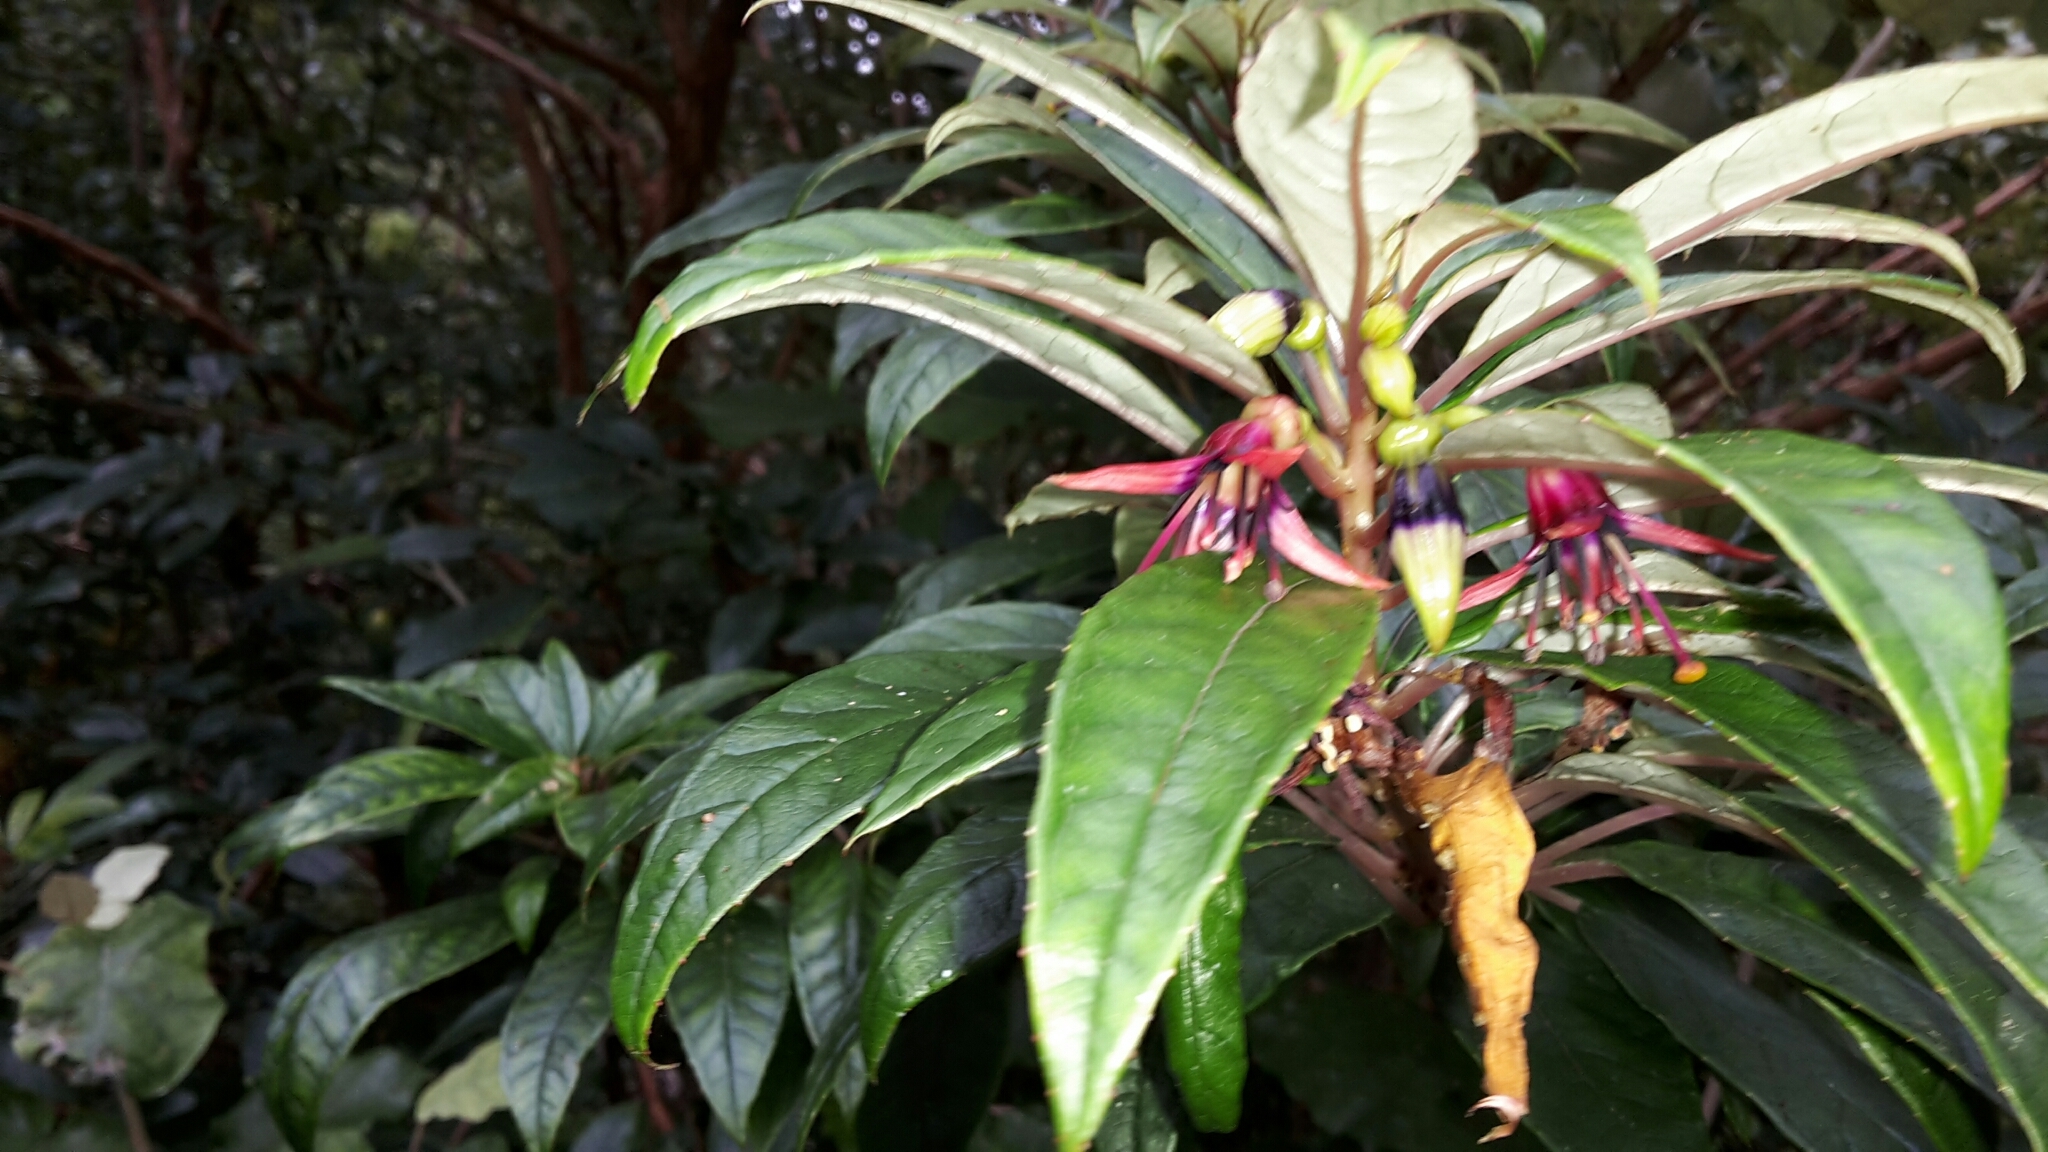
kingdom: Plantae
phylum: Tracheophyta
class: Magnoliopsida
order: Myrtales
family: Onagraceae
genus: Fuchsia
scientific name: Fuchsia excorticata
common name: Tree fuchsia
